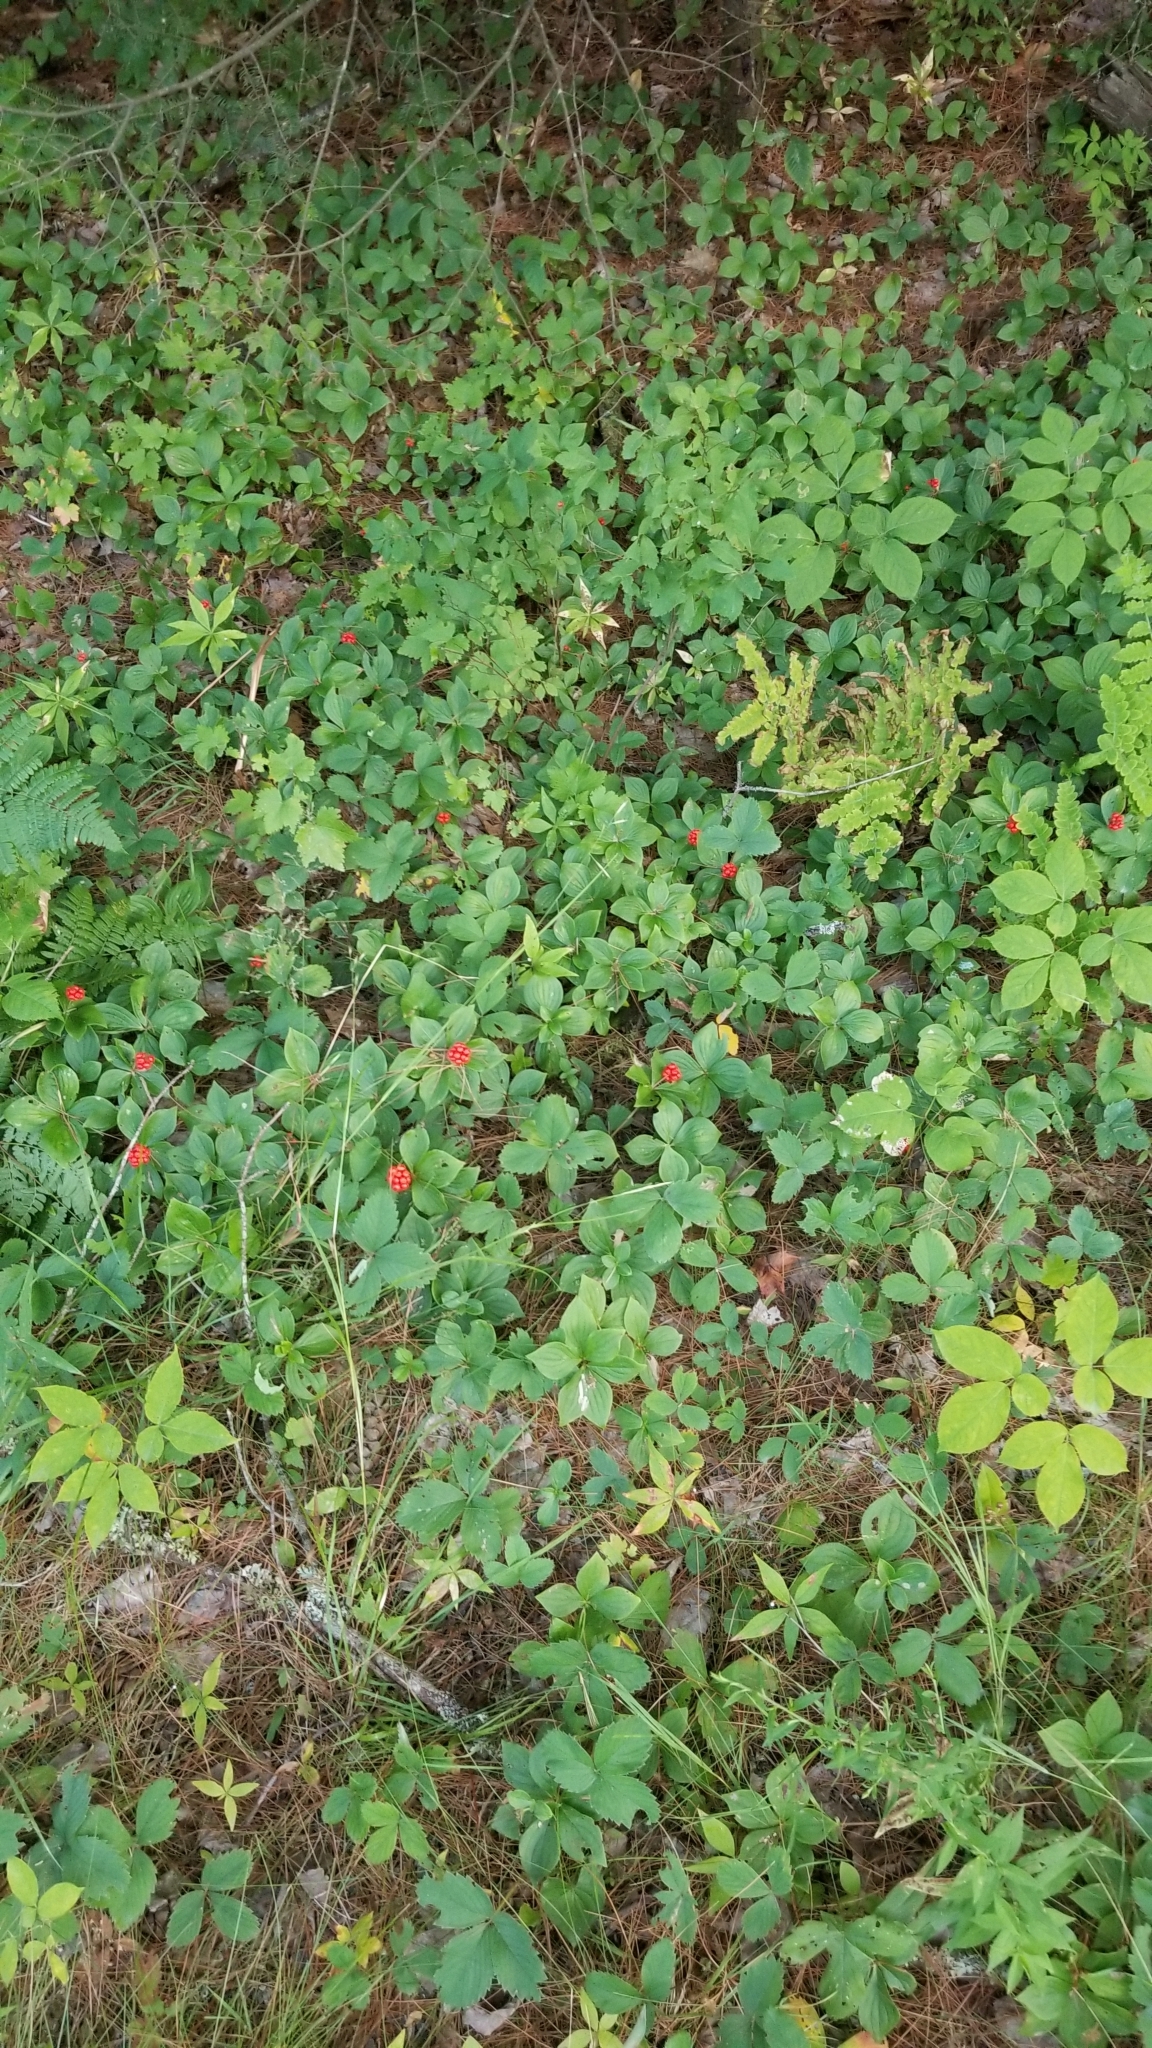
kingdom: Plantae
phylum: Tracheophyta
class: Magnoliopsida
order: Cornales
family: Cornaceae
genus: Cornus
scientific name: Cornus canadensis
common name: Creeping dogwood
